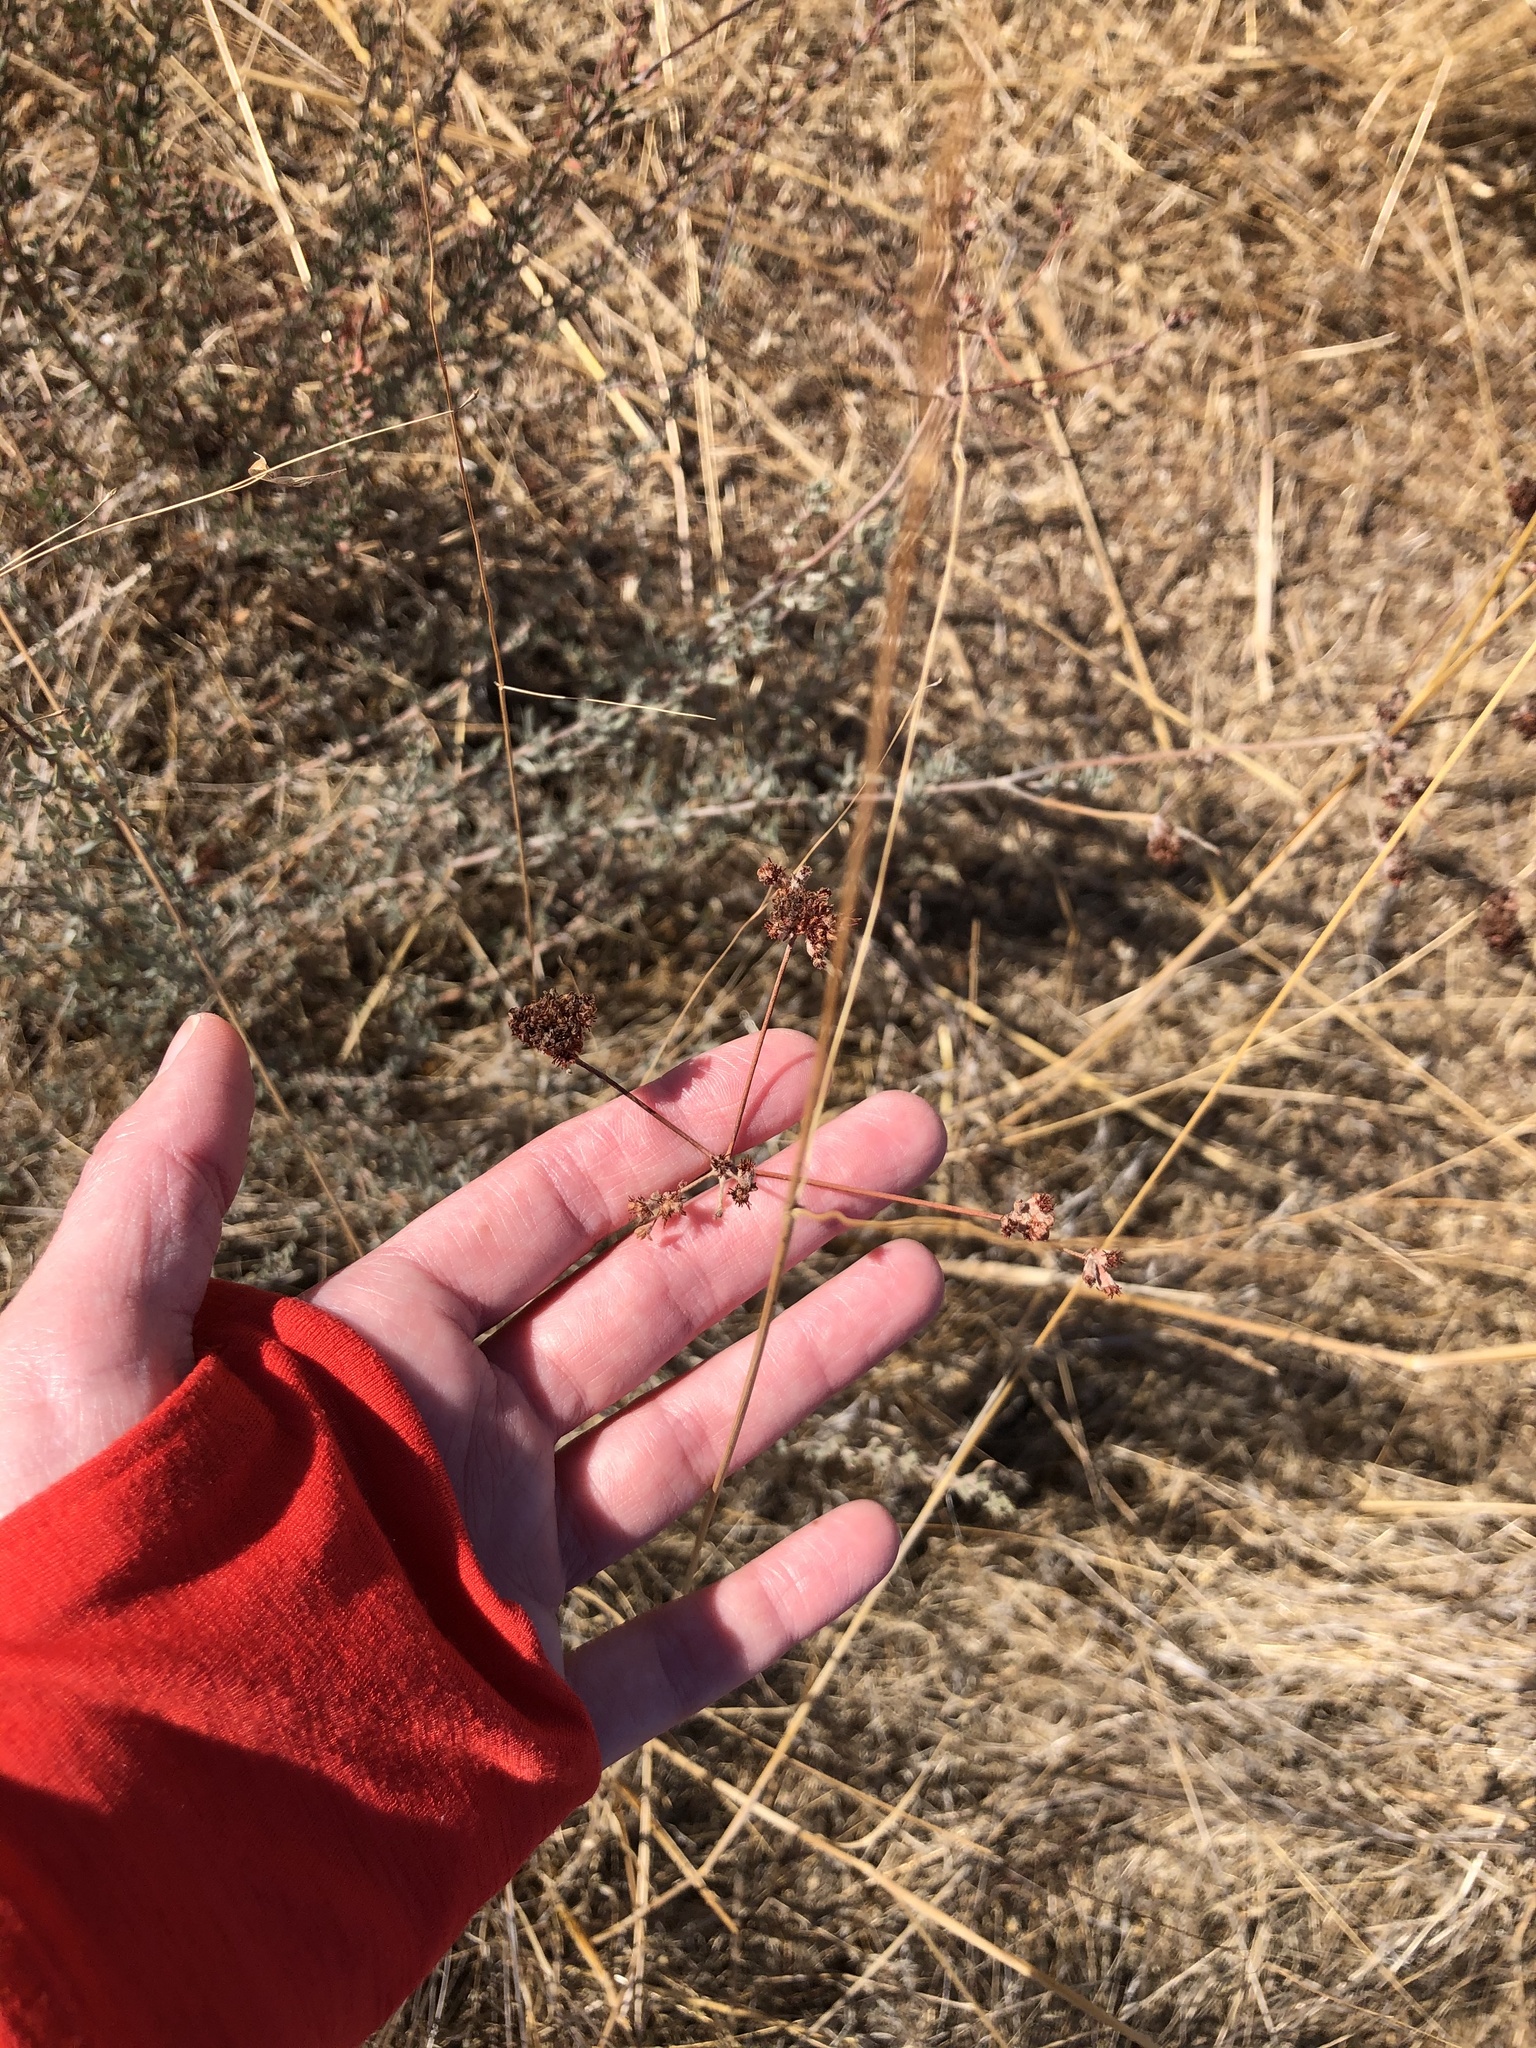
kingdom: Plantae
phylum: Tracheophyta
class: Magnoliopsida
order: Caryophyllales
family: Polygonaceae
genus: Eriogonum
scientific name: Eriogonum fasciculatum
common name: California wild buckwheat
